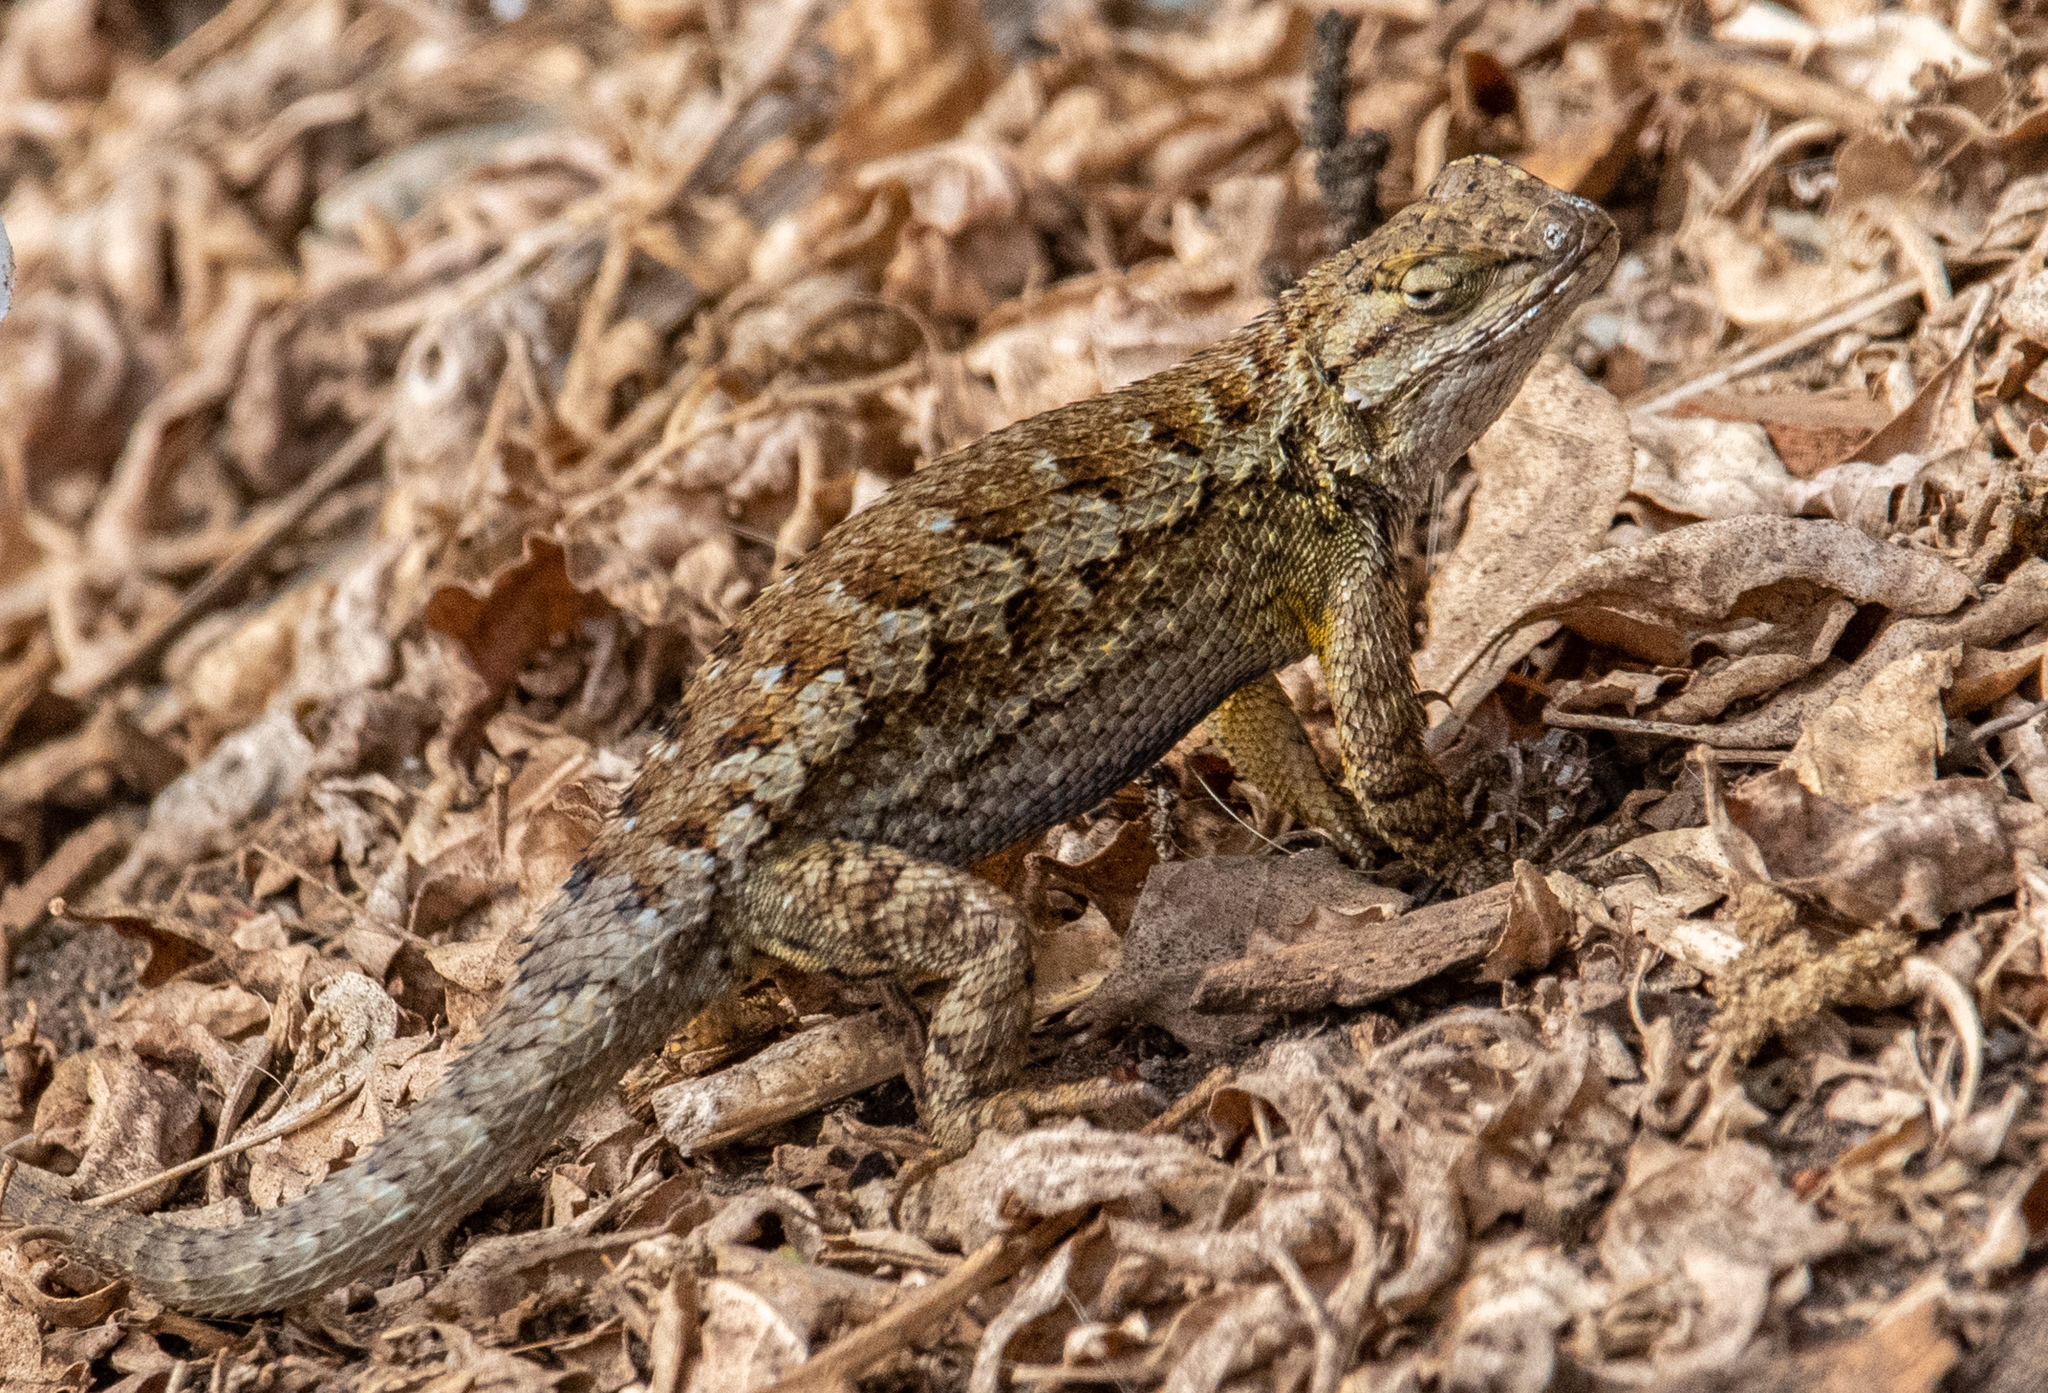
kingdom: Animalia
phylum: Chordata
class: Squamata
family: Phrynosomatidae
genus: Sceloporus
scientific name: Sceloporus occidentalis
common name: Western fence lizard
